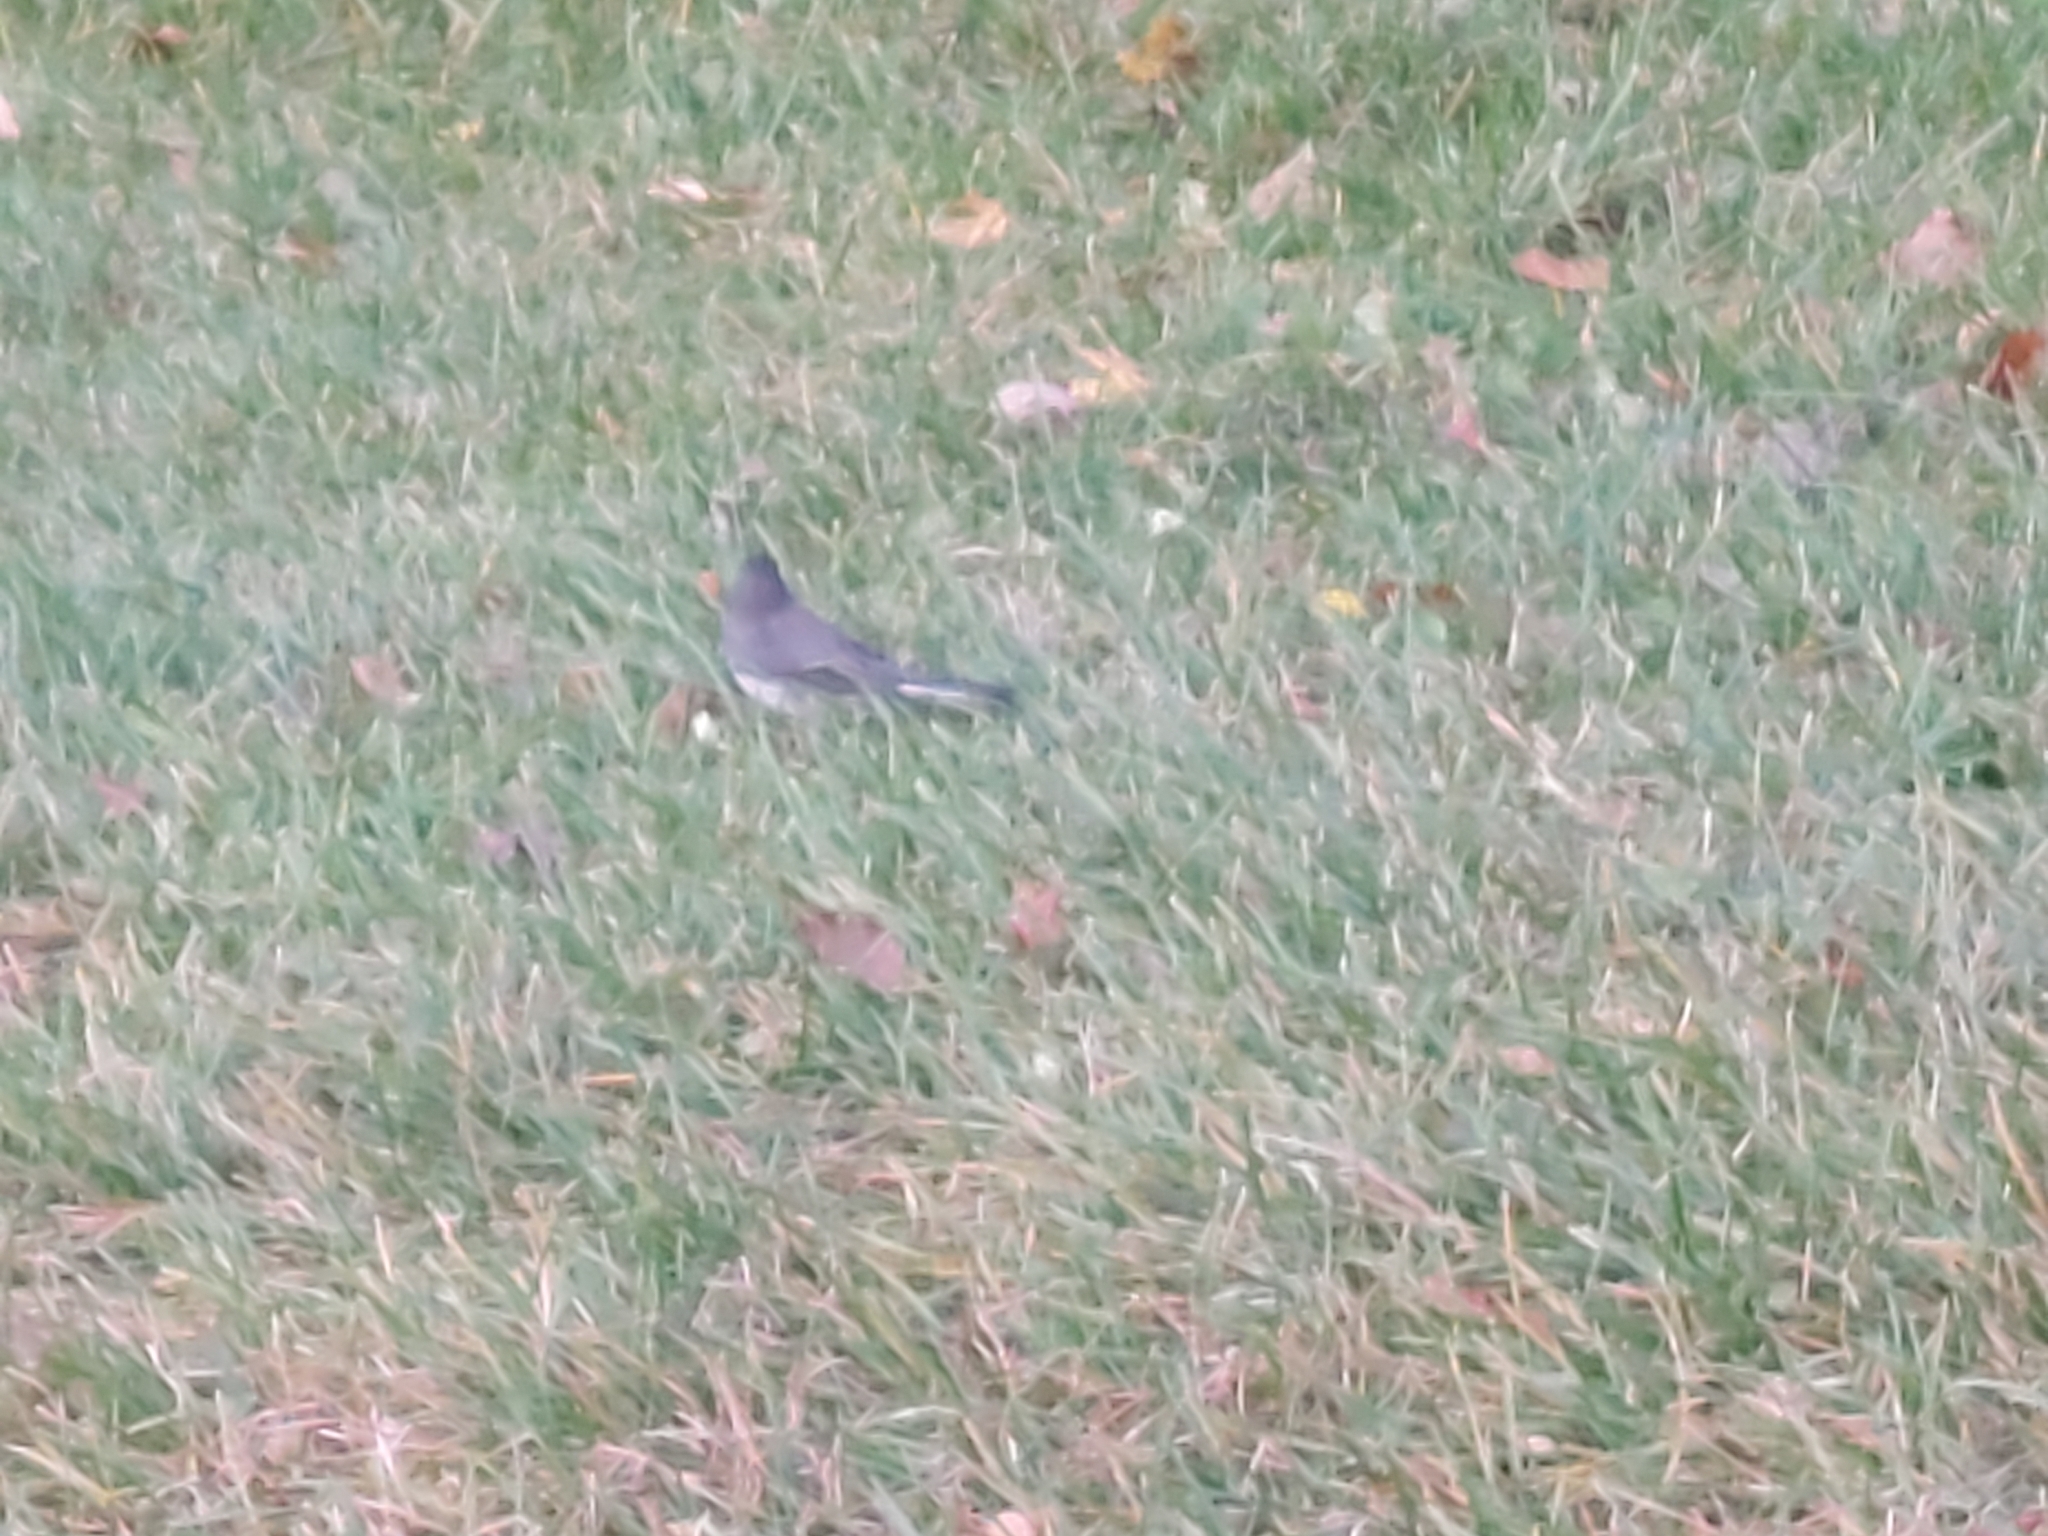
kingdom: Animalia
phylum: Chordata
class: Aves
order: Passeriformes
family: Passerellidae
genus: Junco
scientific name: Junco hyemalis
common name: Dark-eyed junco
